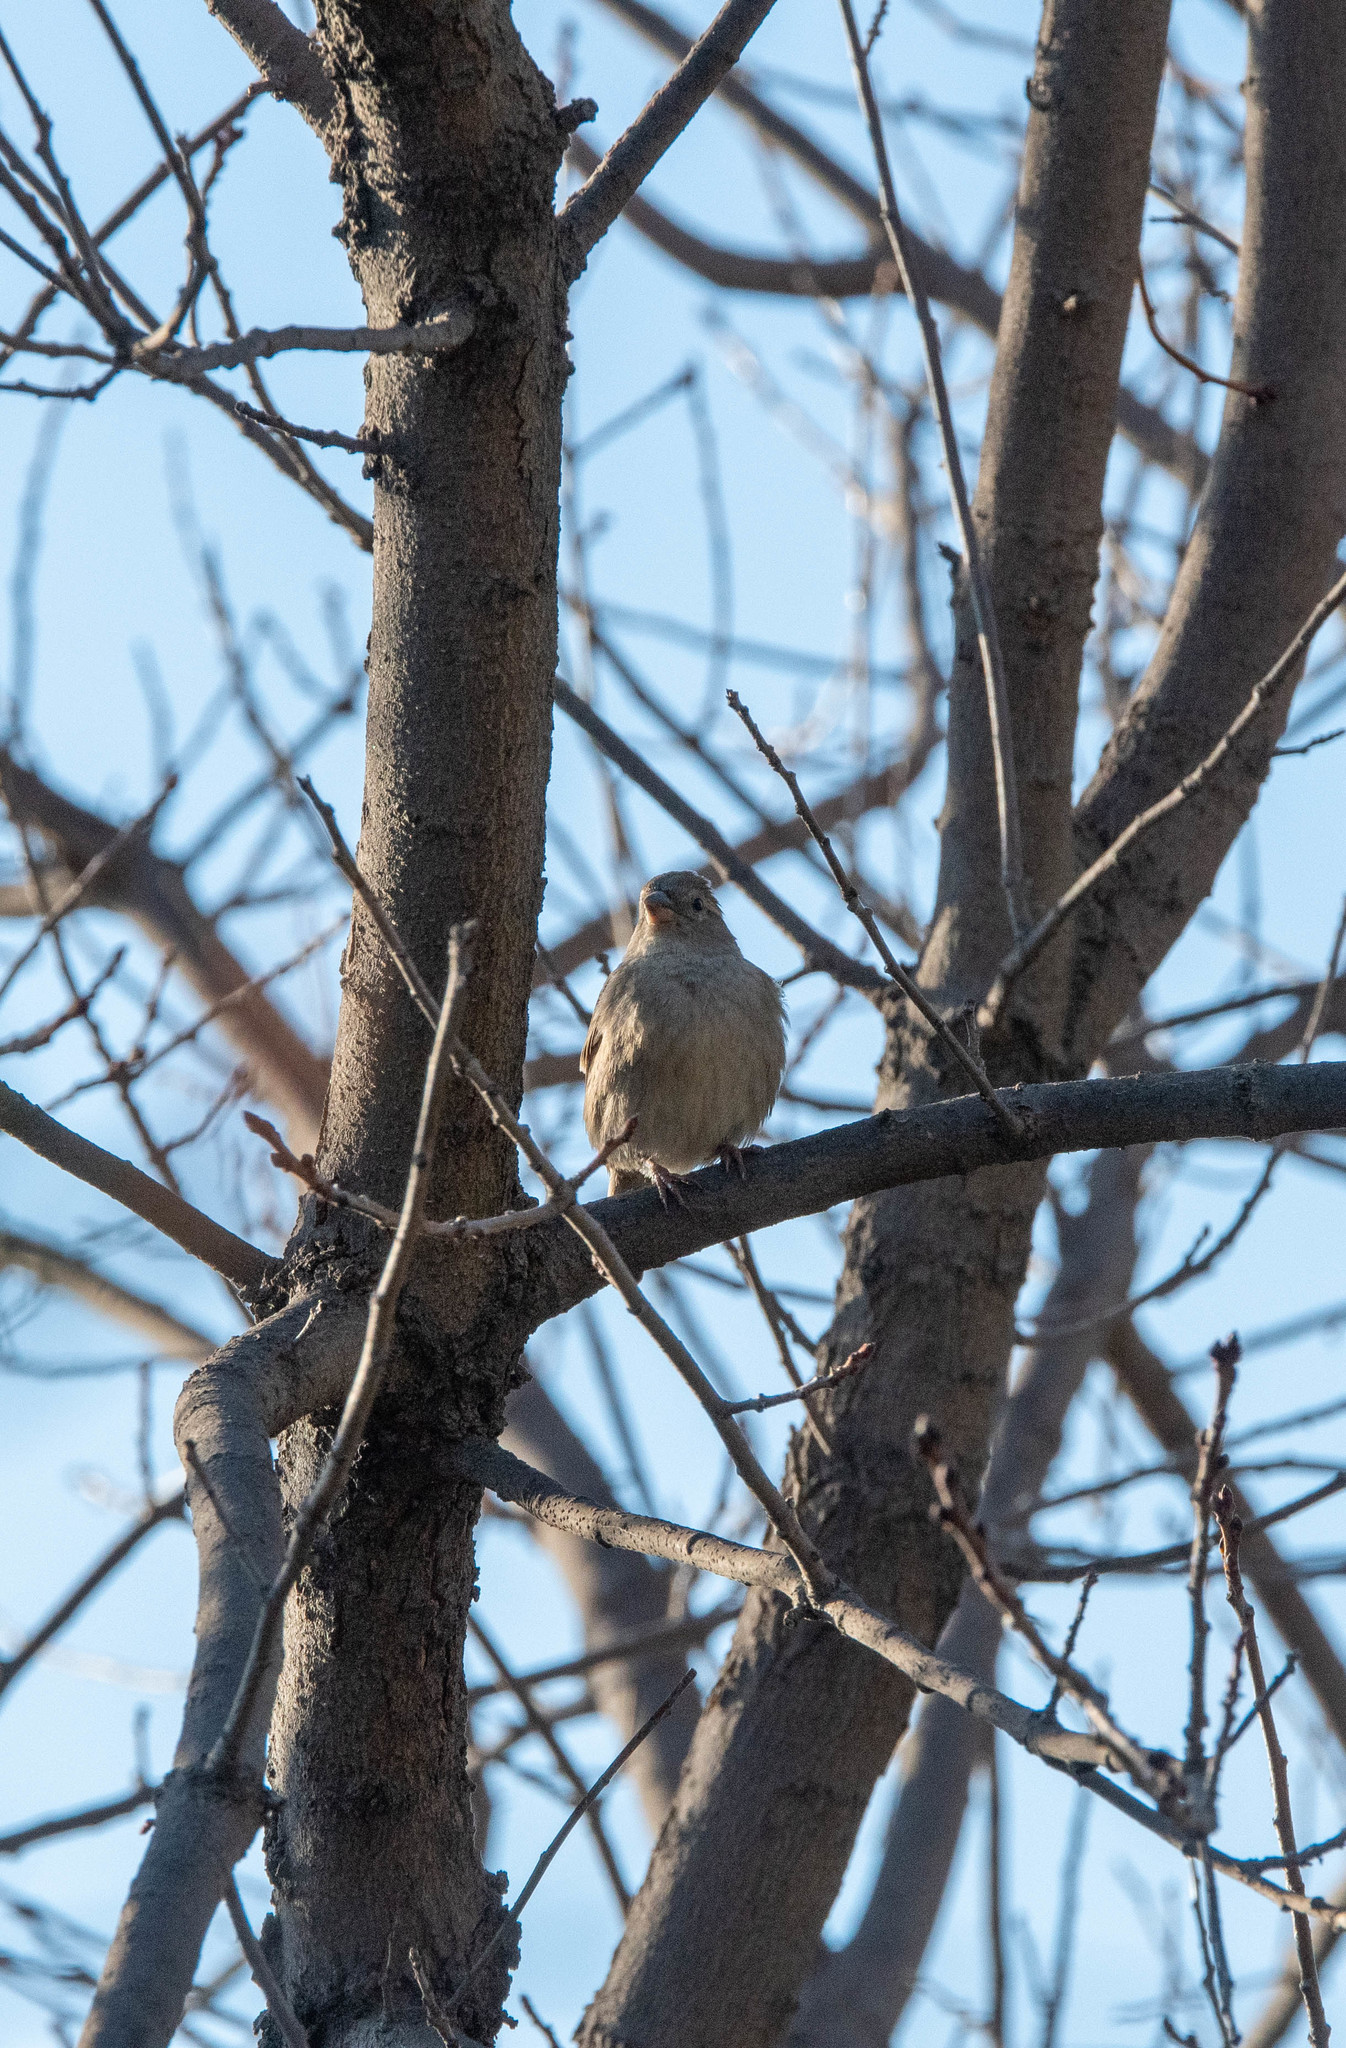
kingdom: Animalia
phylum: Chordata
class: Aves
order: Passeriformes
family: Passeridae
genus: Passer
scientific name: Passer domesticus
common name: House sparrow
